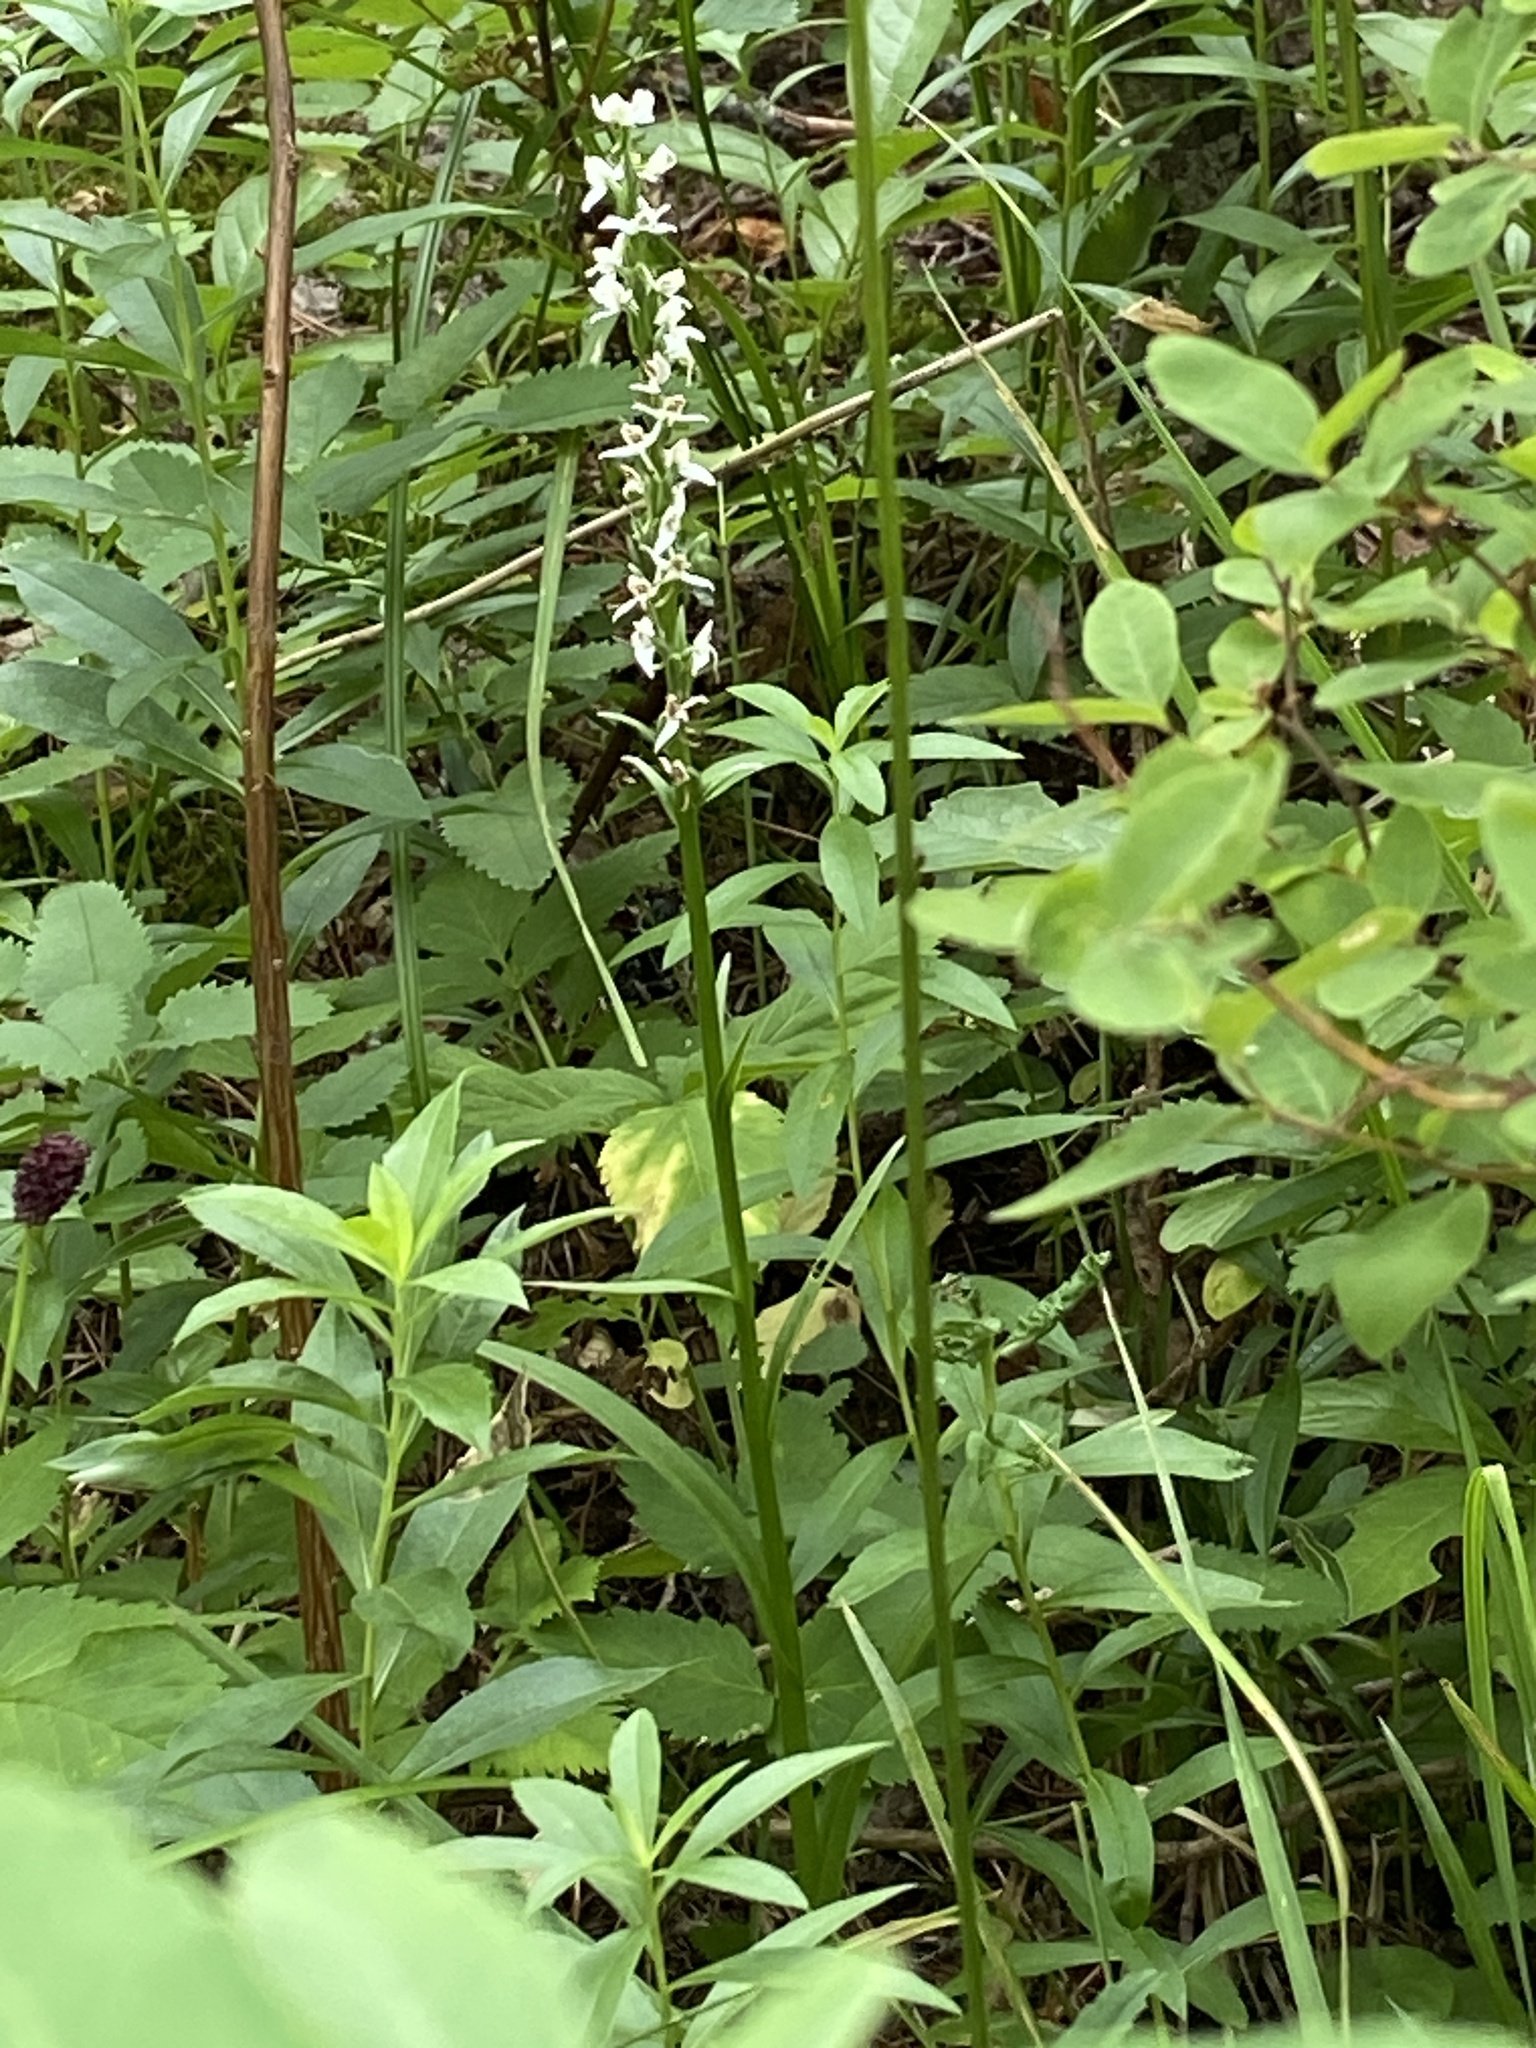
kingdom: Plantae
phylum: Tracheophyta
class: Liliopsida
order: Asparagales
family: Orchidaceae
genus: Platanthera
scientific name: Platanthera dilatata
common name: Bog candles
